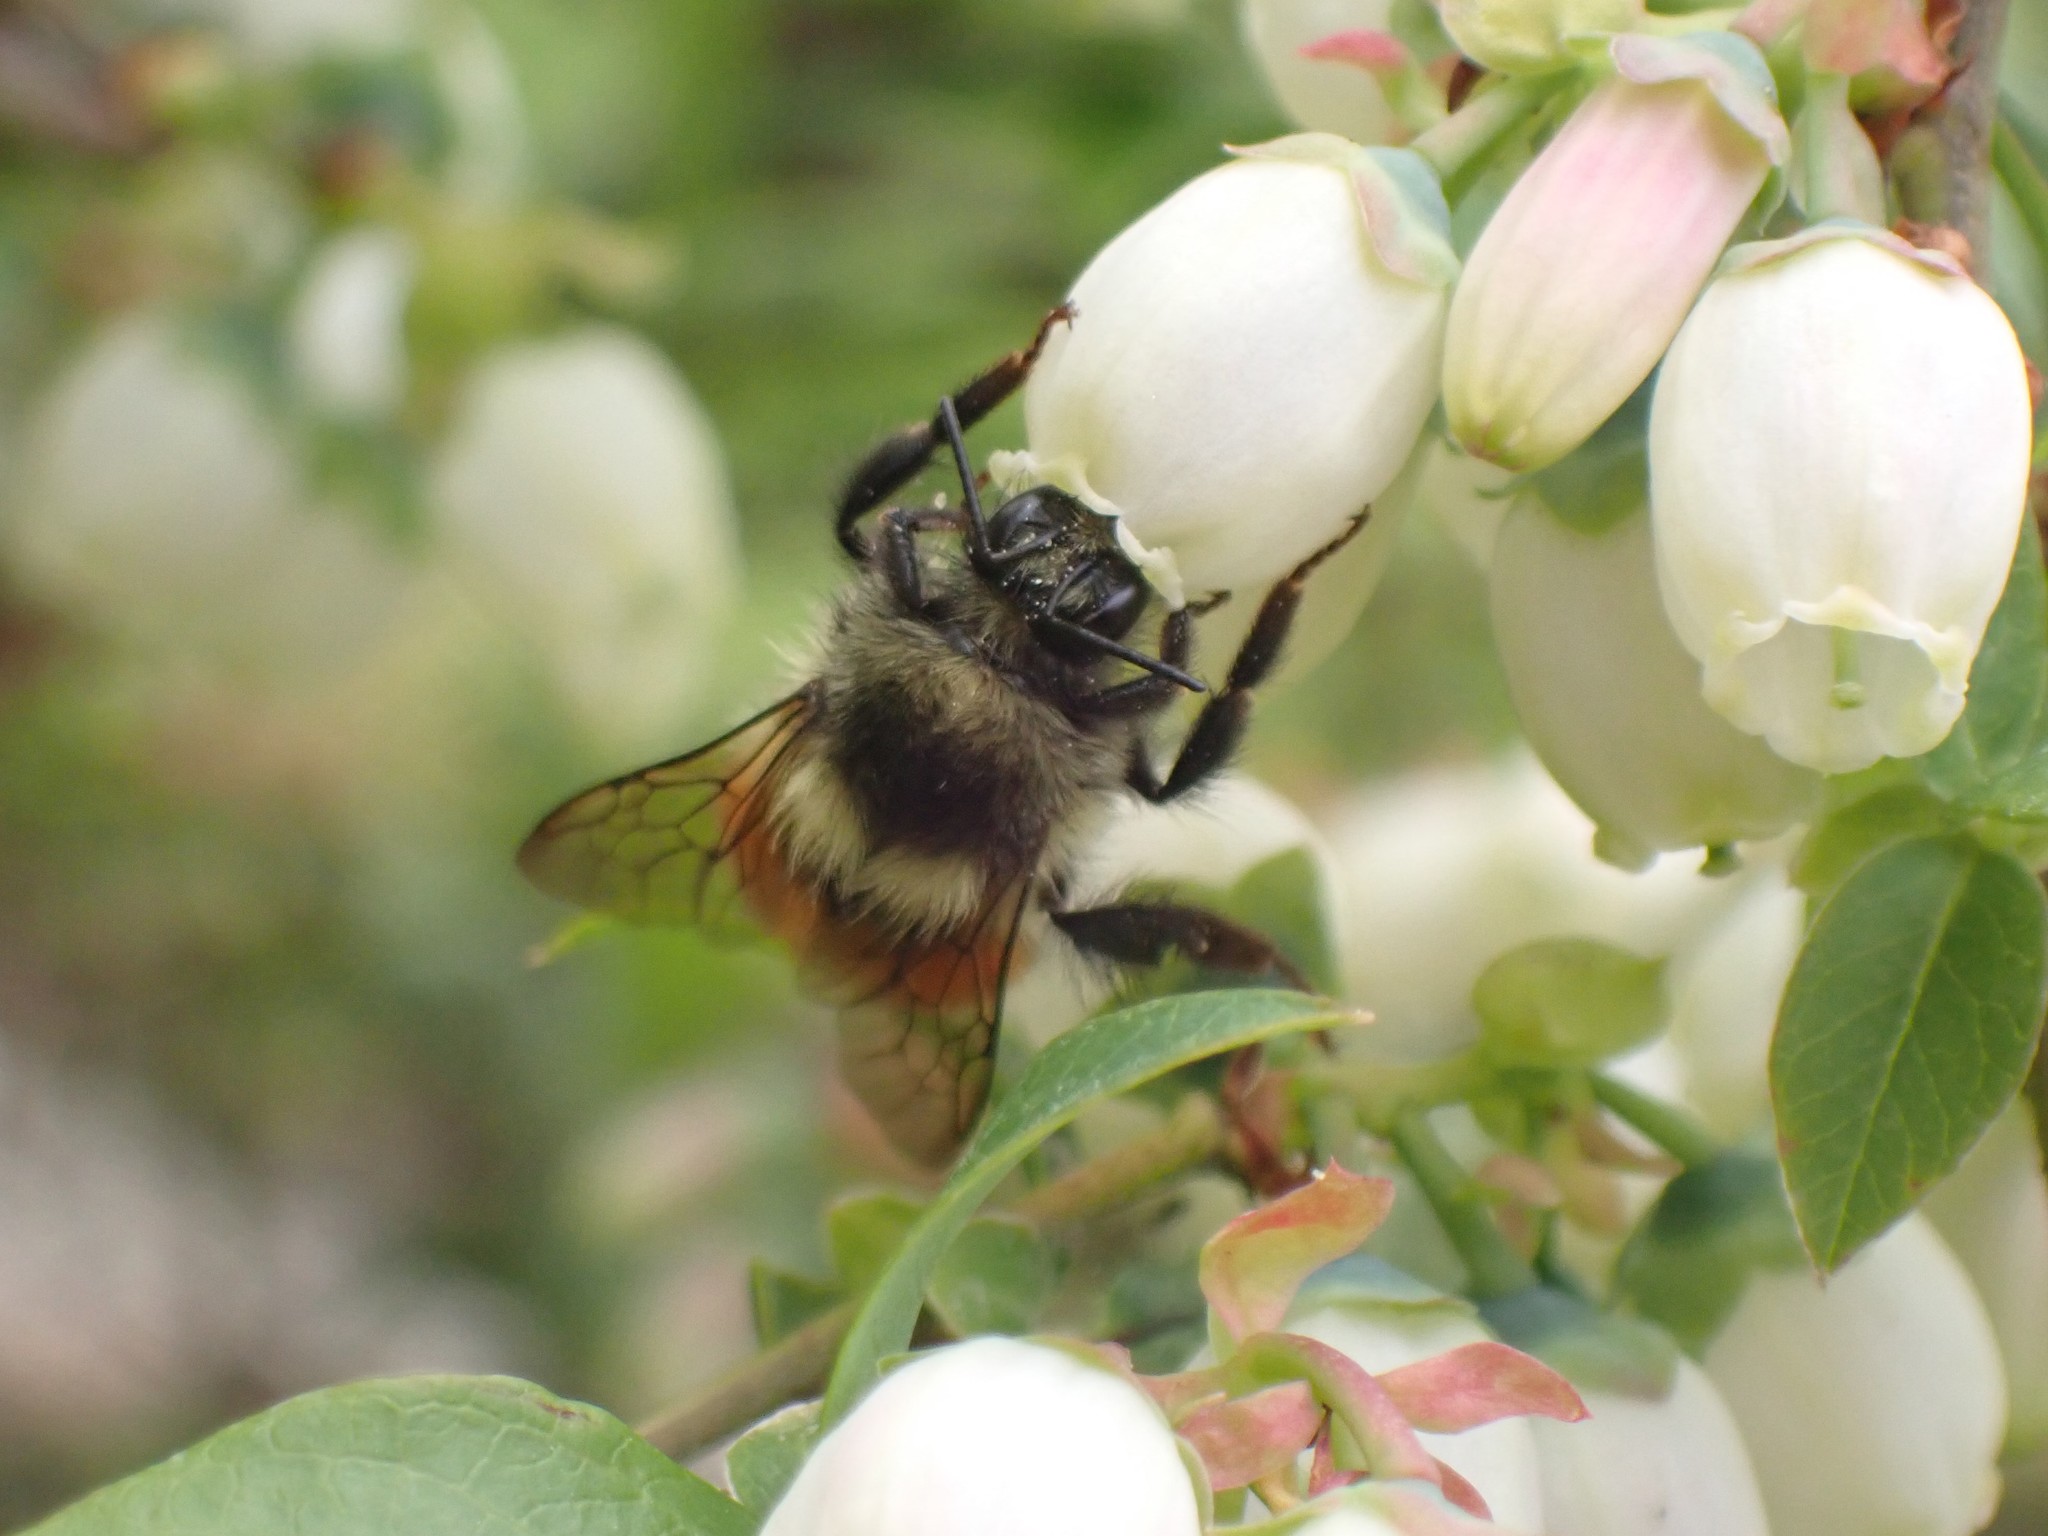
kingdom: Animalia
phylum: Arthropoda
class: Insecta
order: Hymenoptera
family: Apidae
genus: Bombus
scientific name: Bombus melanopygus
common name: Black tail bumble bee
